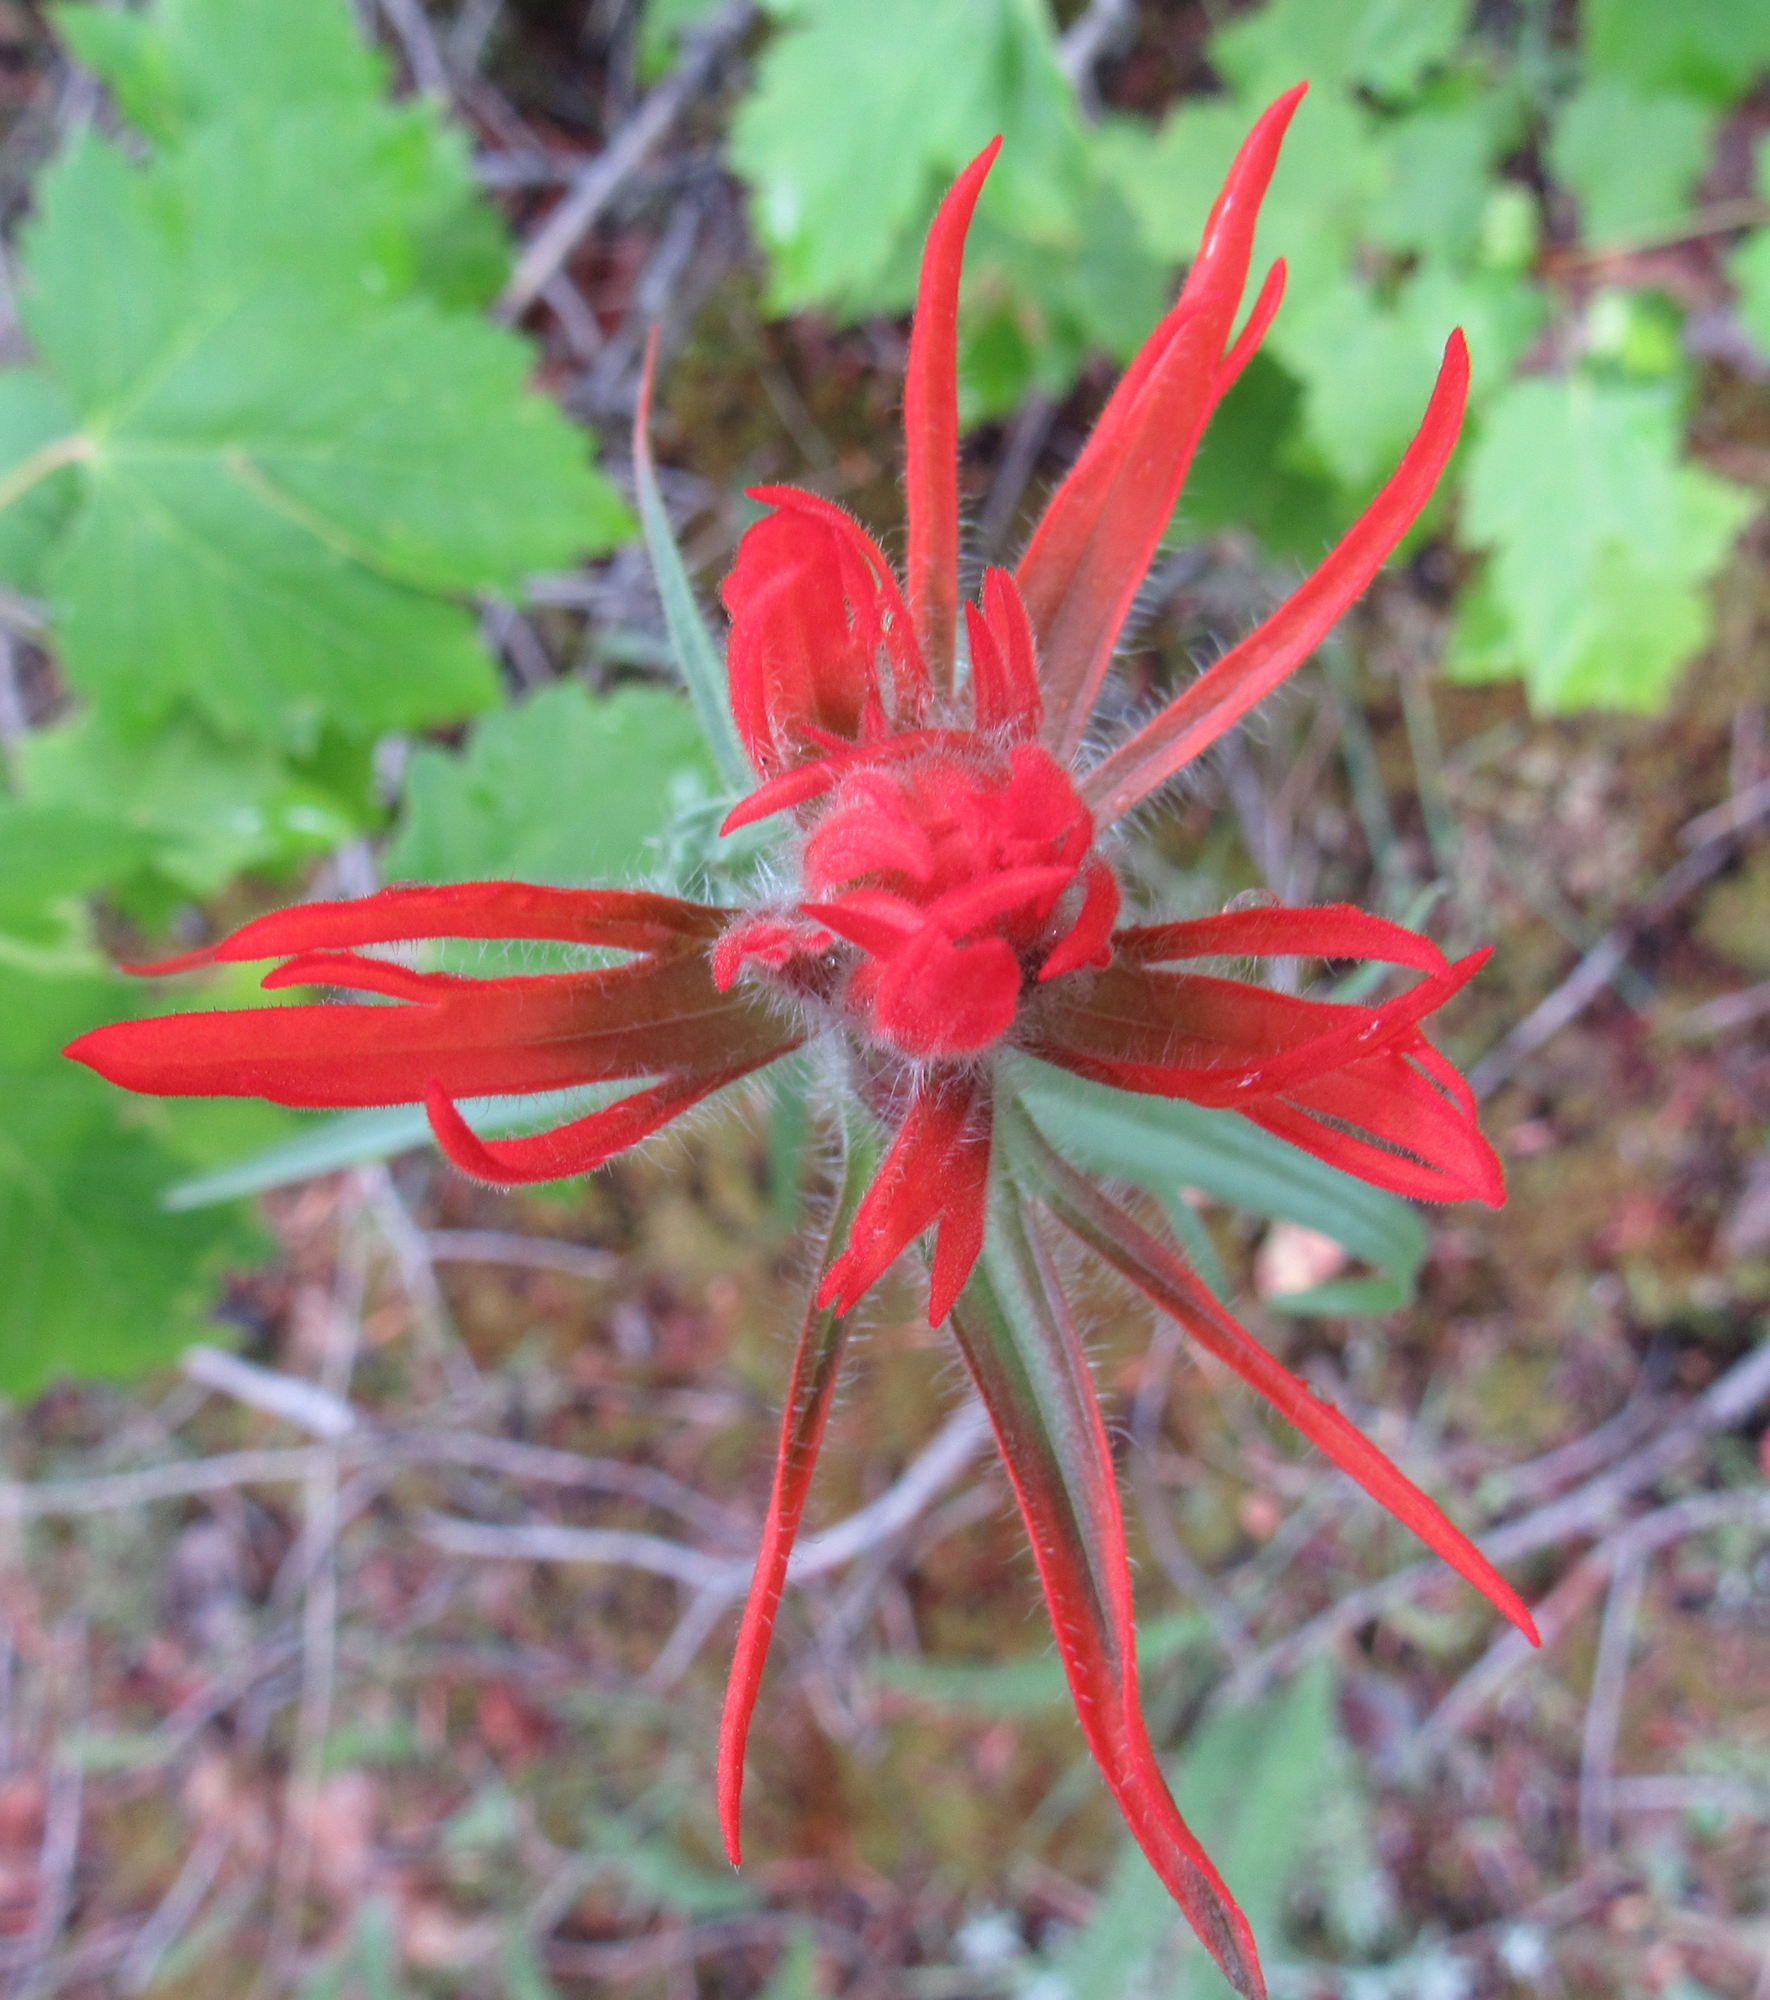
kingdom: Plantae
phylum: Tracheophyta
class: Magnoliopsida
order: Lamiales
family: Orobanchaceae
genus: Castilleja
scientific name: Castilleja crista-galli
